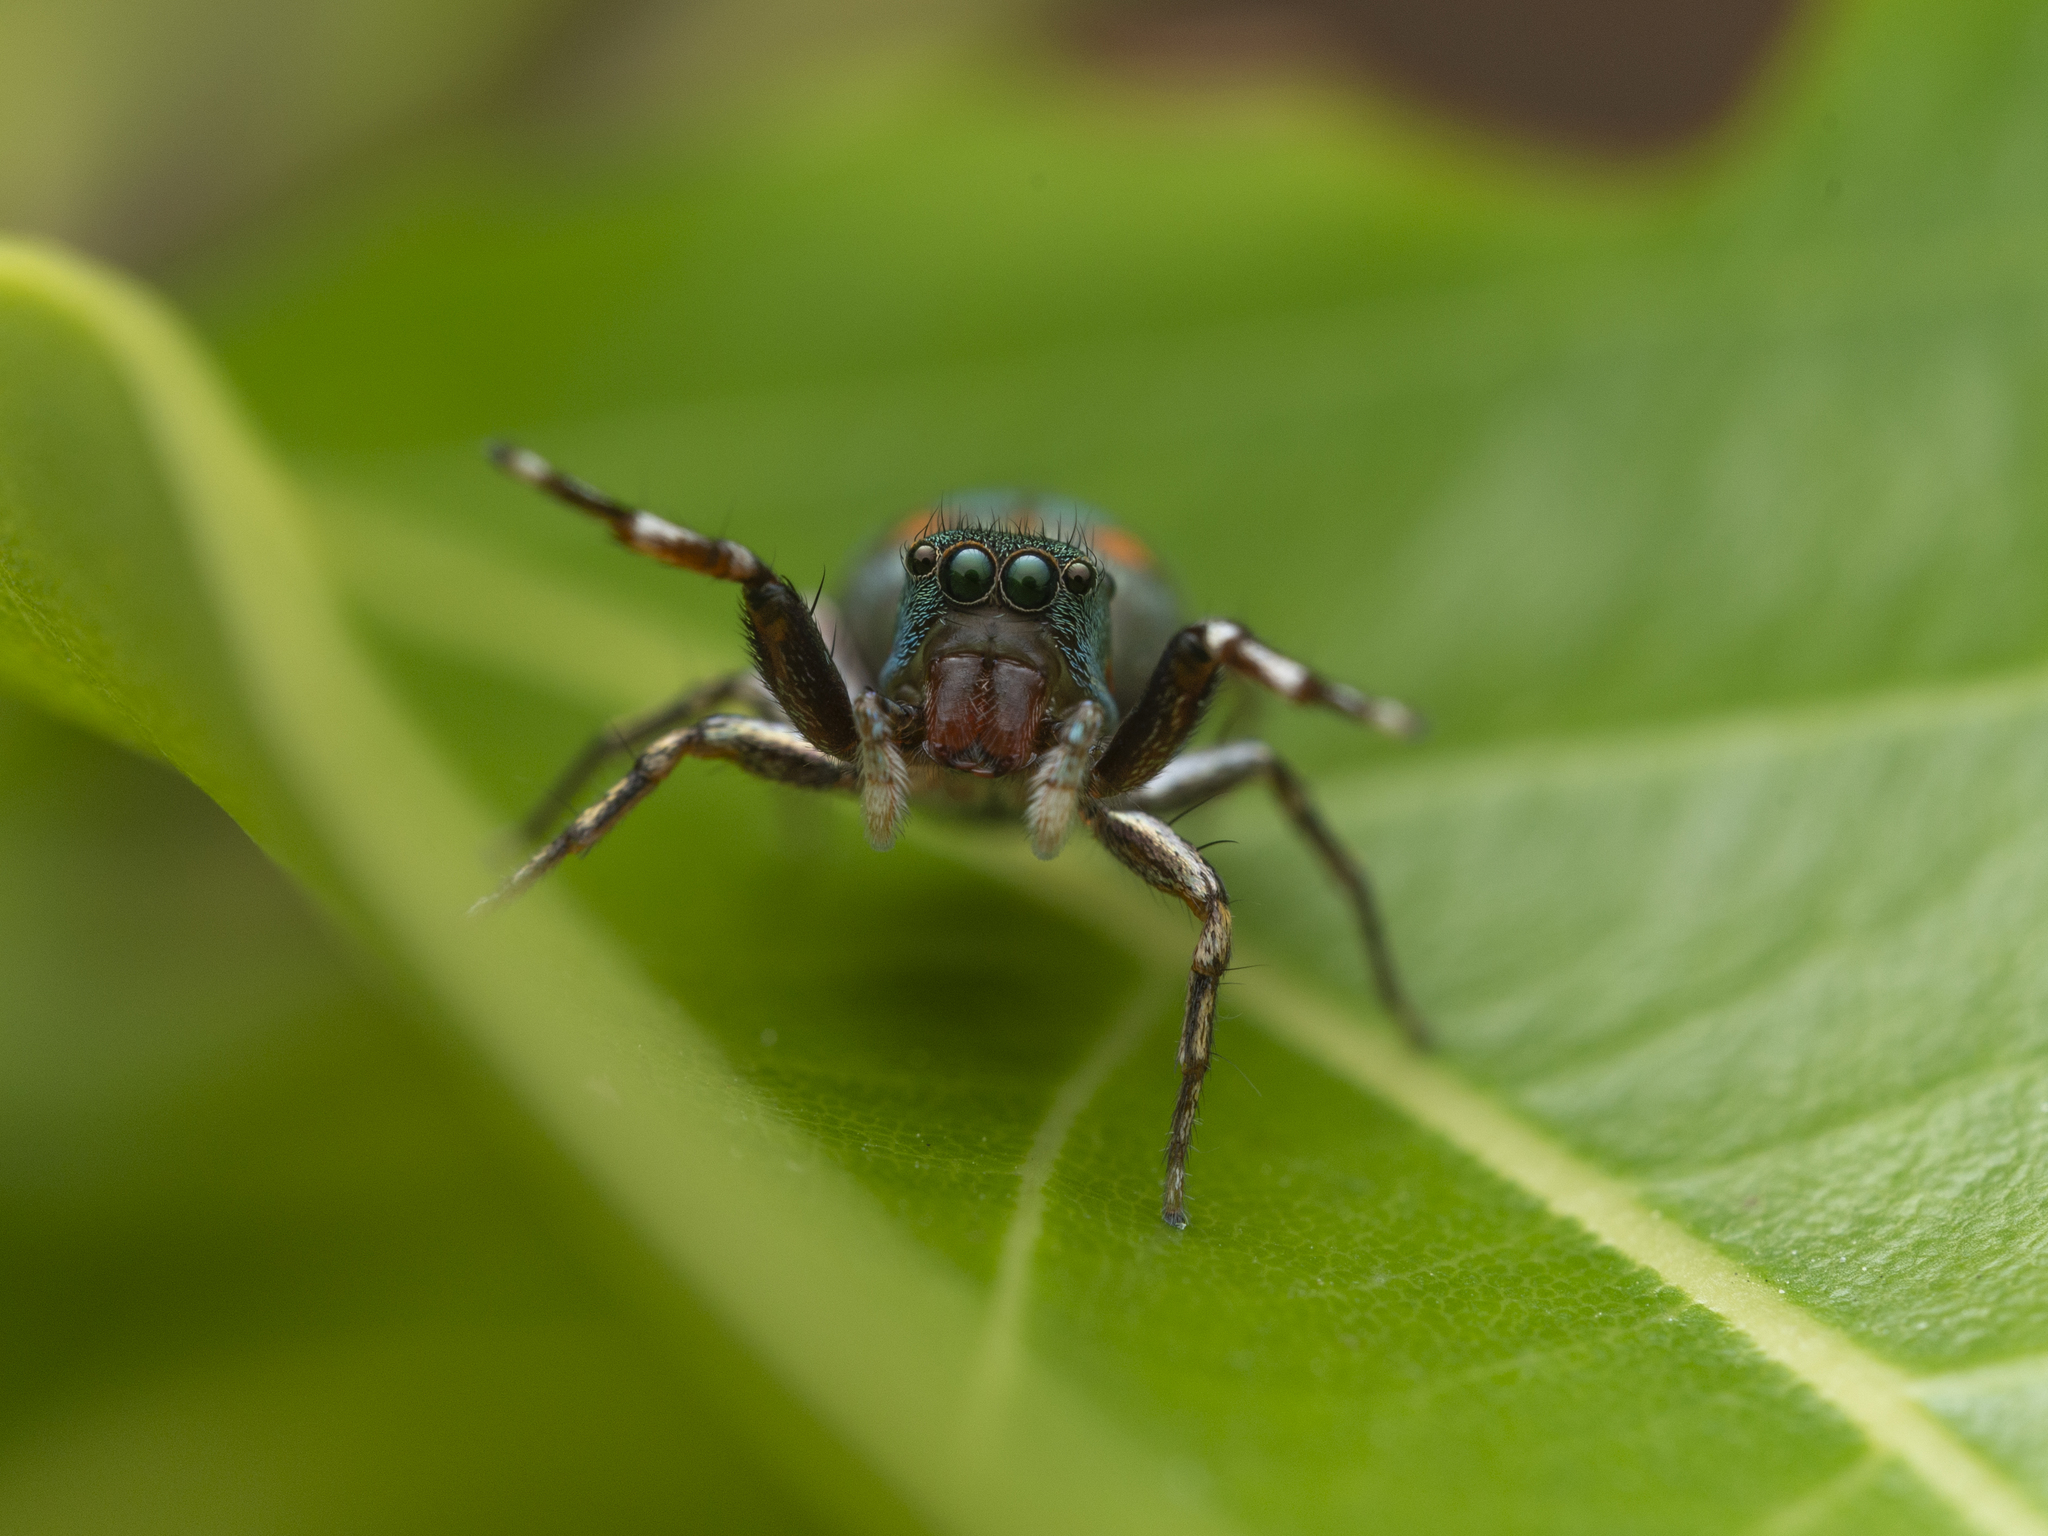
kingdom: Animalia
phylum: Arthropoda
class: Arachnida
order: Araneae
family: Salticidae
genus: Siler
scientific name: Siler collingwoodi
